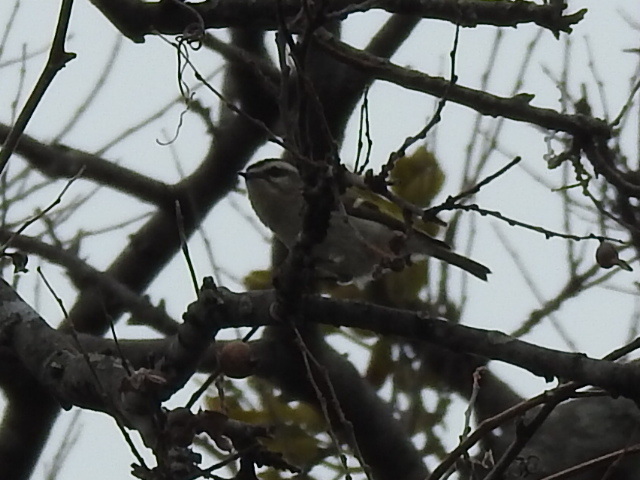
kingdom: Animalia
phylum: Chordata
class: Aves
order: Passeriformes
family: Regulidae
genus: Regulus
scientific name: Regulus satrapa
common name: Golden-crowned kinglet
